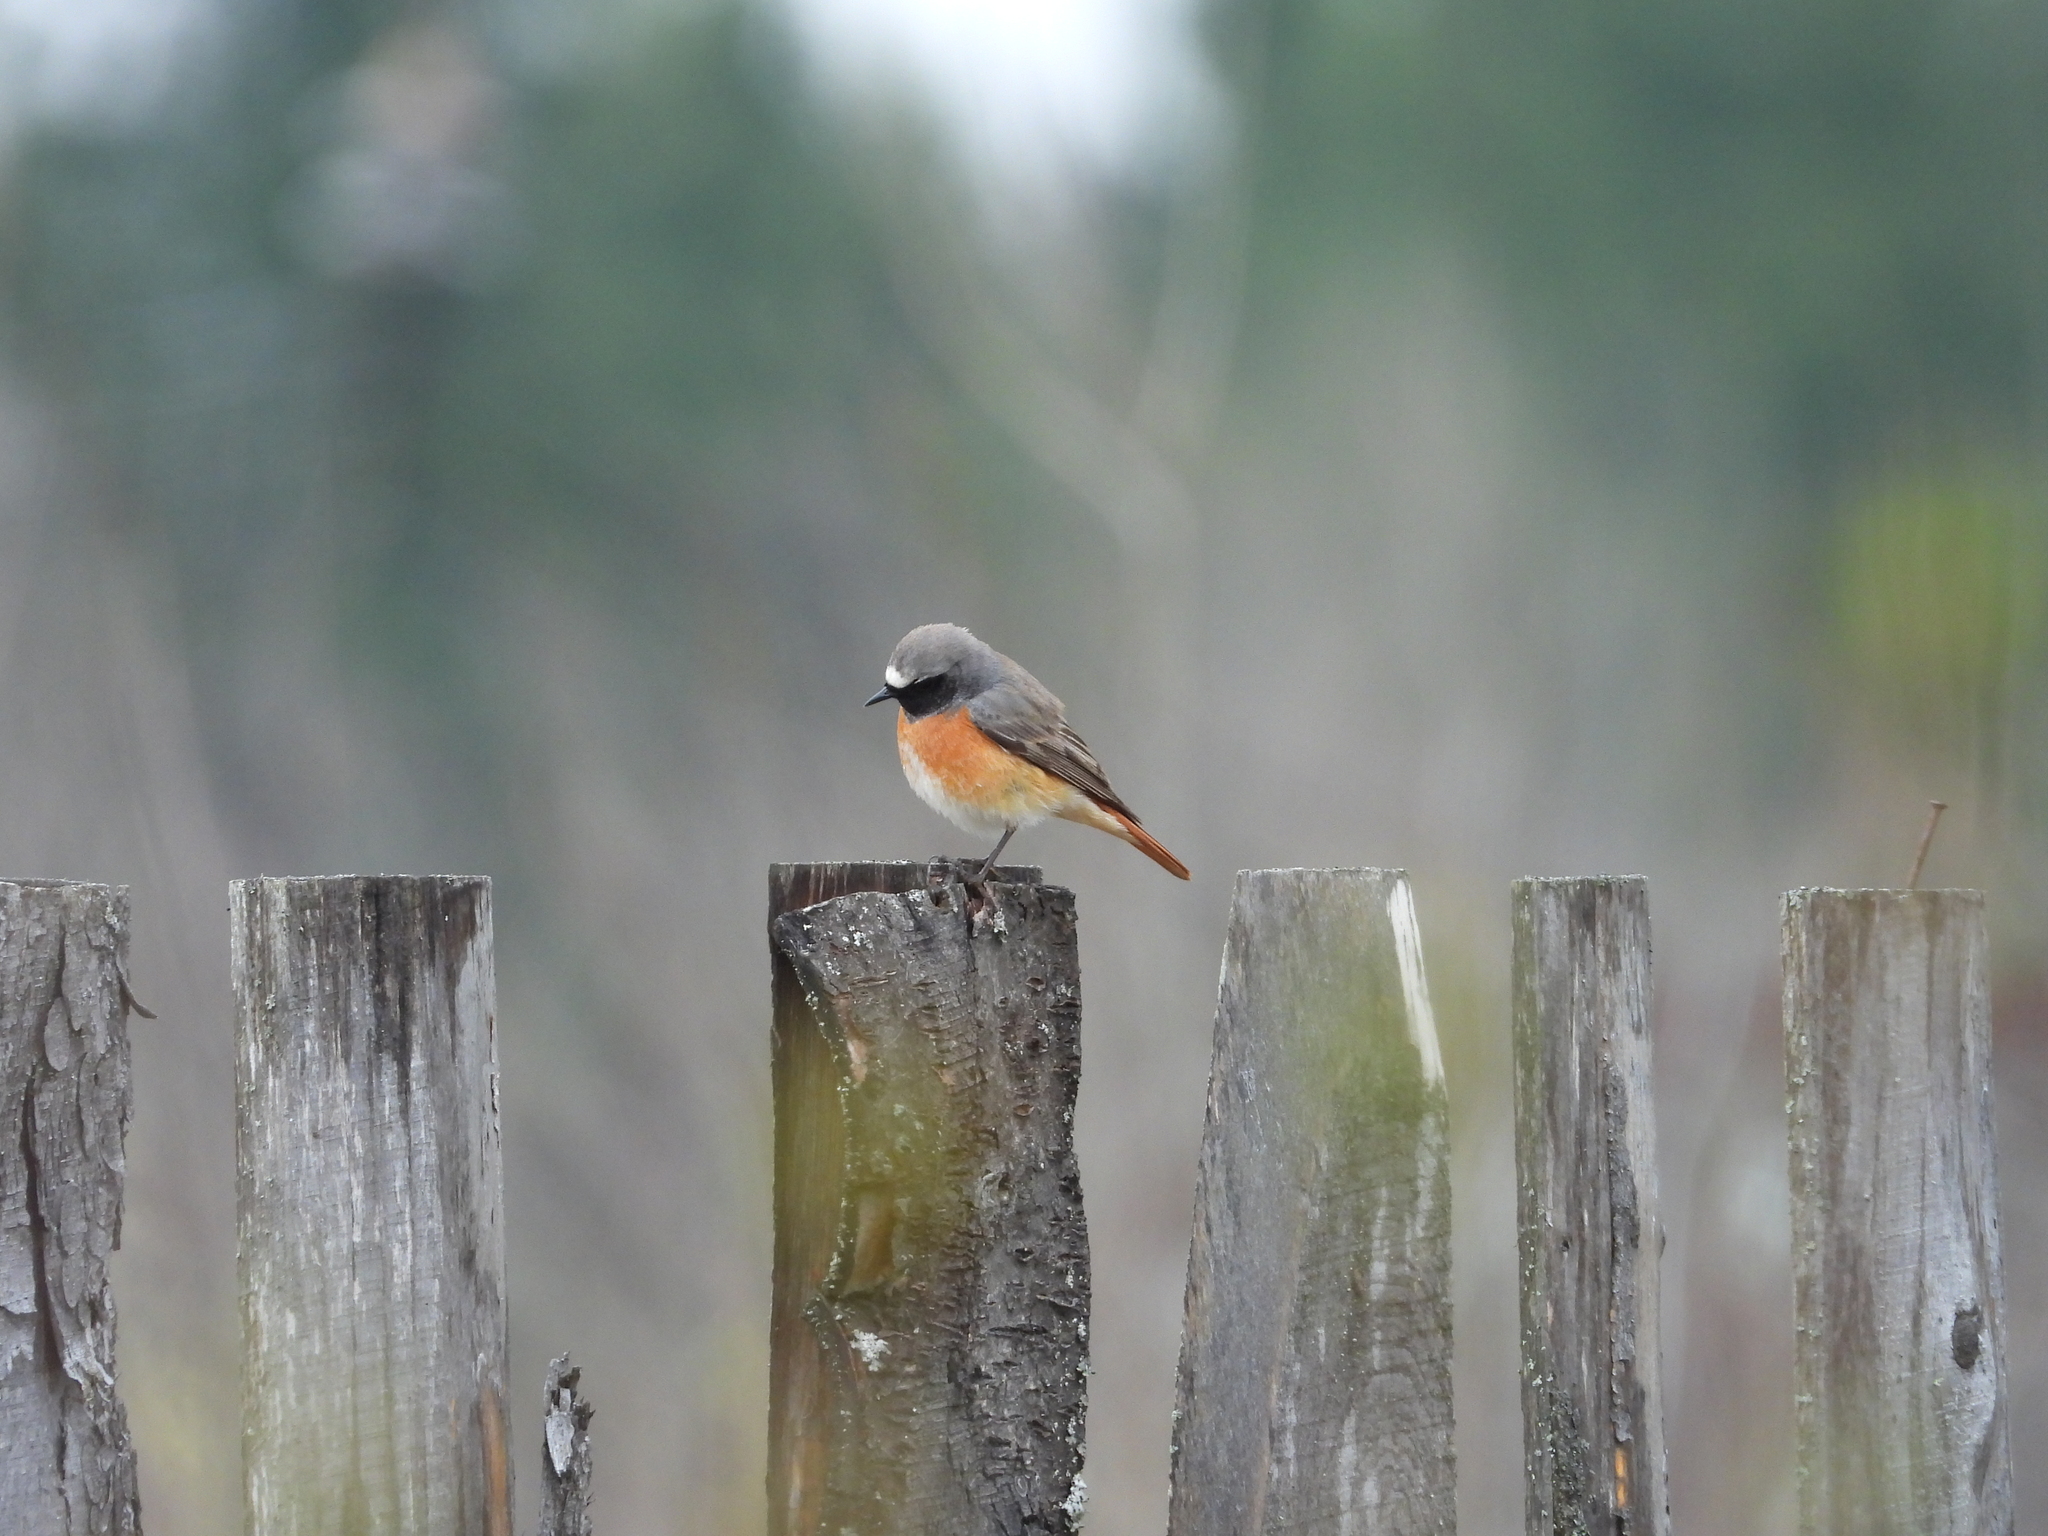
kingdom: Animalia
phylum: Chordata
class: Aves
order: Passeriformes
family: Muscicapidae
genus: Phoenicurus
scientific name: Phoenicurus phoenicurus
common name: Common redstart
